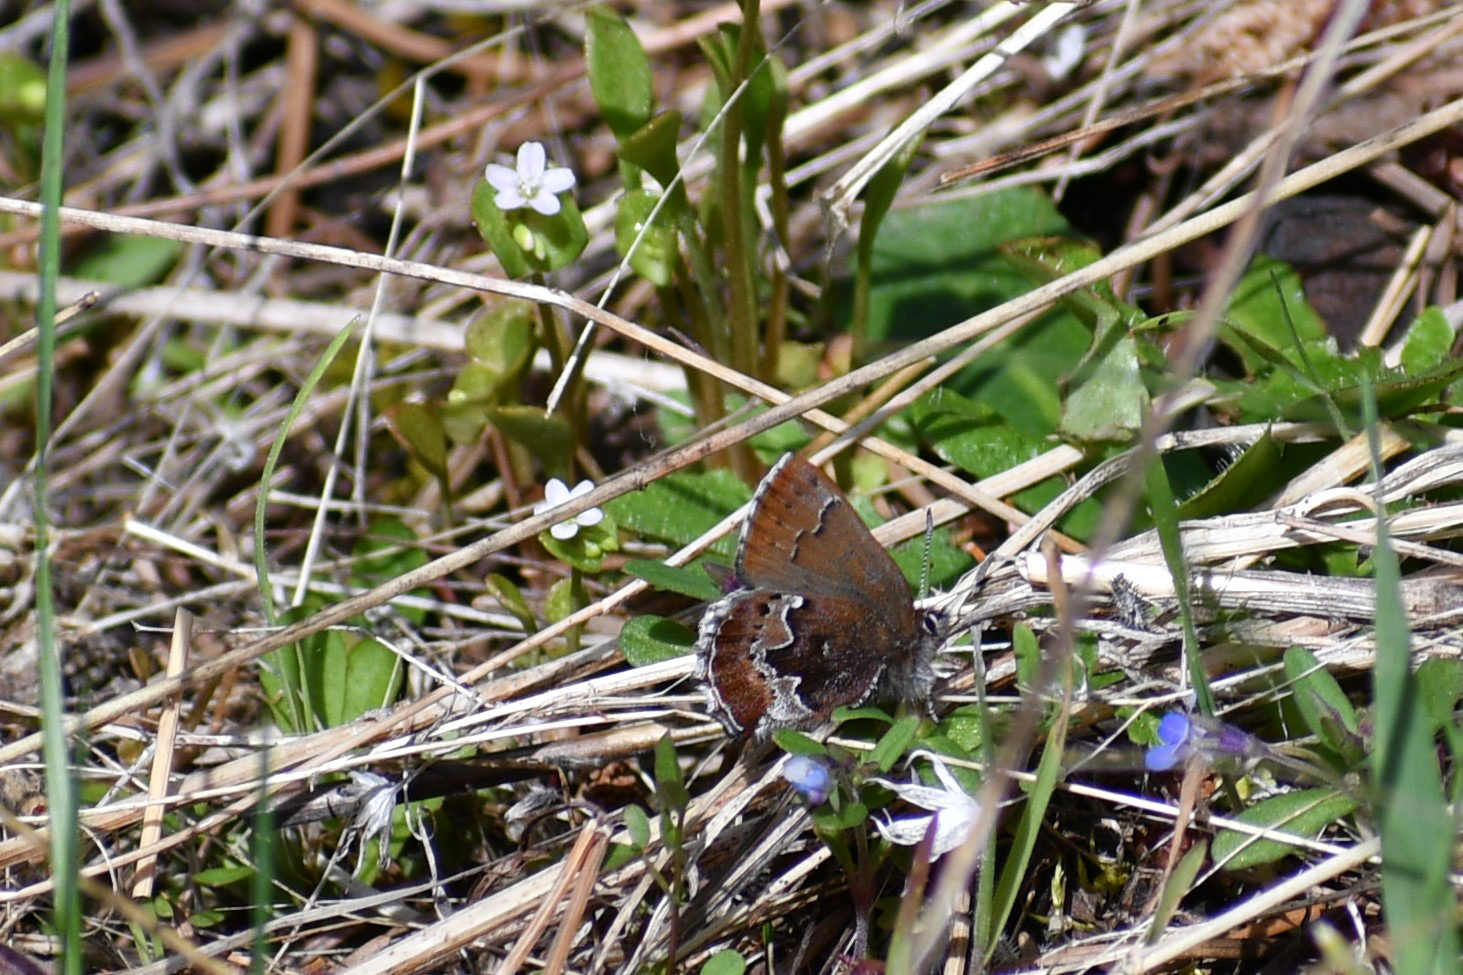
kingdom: Animalia
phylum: Arthropoda
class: Insecta
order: Lepidoptera
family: Lycaenidae
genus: Callophrys
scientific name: Callophrys mossii
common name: Moss' elfin
